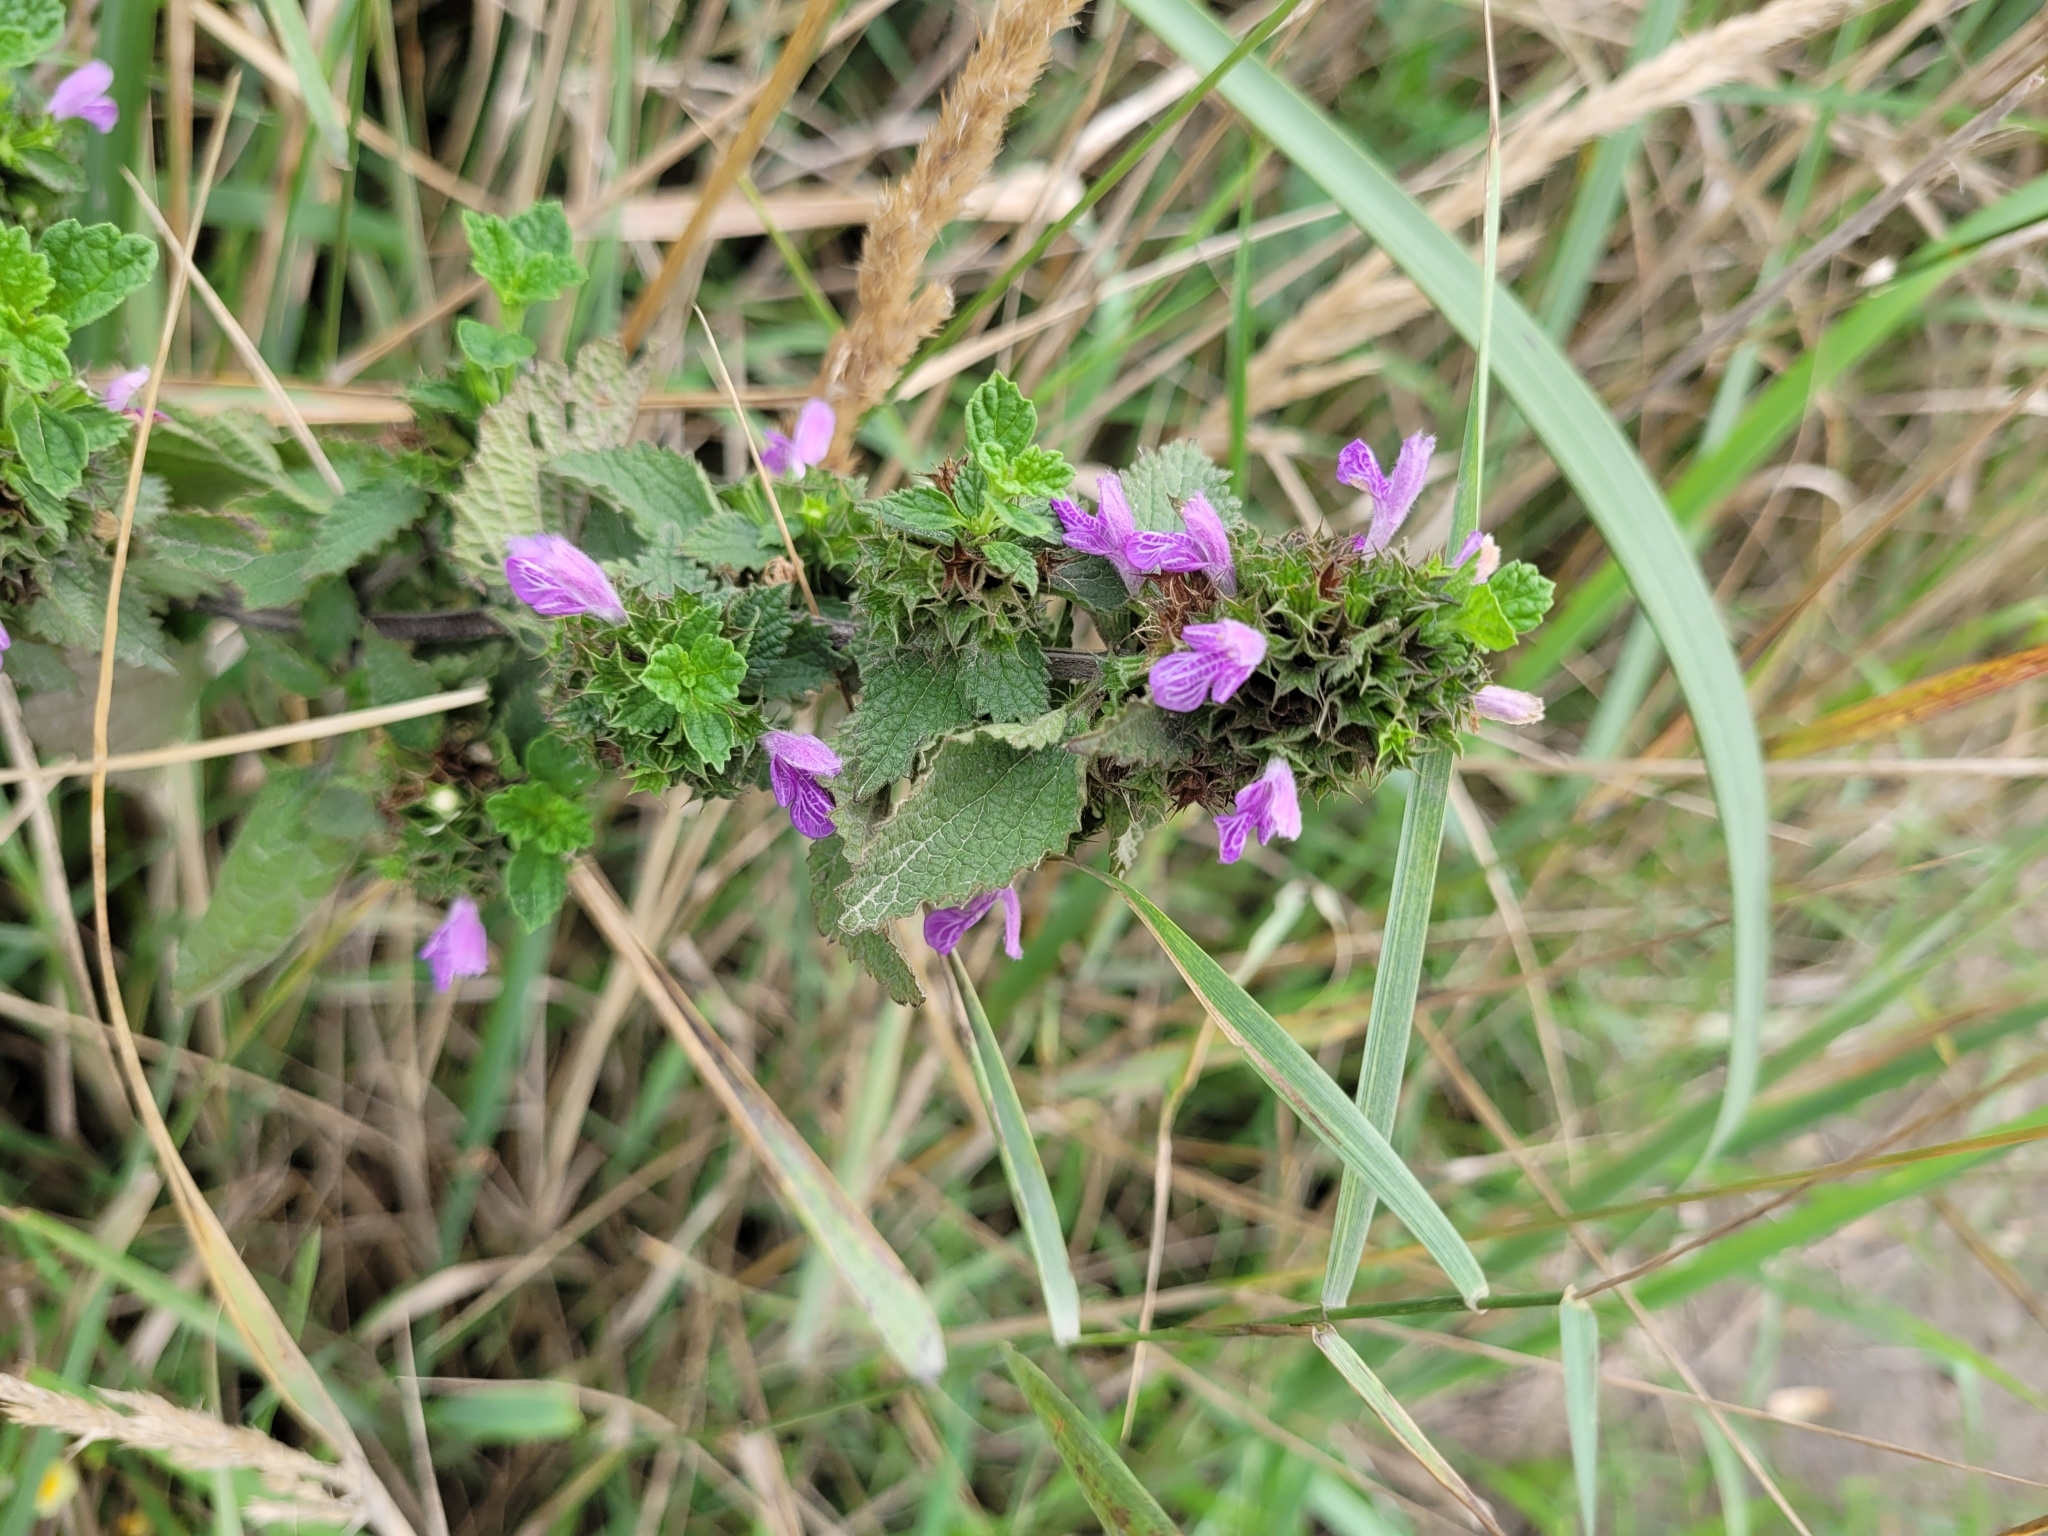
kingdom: Plantae
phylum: Tracheophyta
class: Magnoliopsida
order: Lamiales
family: Lamiaceae
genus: Ballota
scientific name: Ballota nigra
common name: Black horehound
